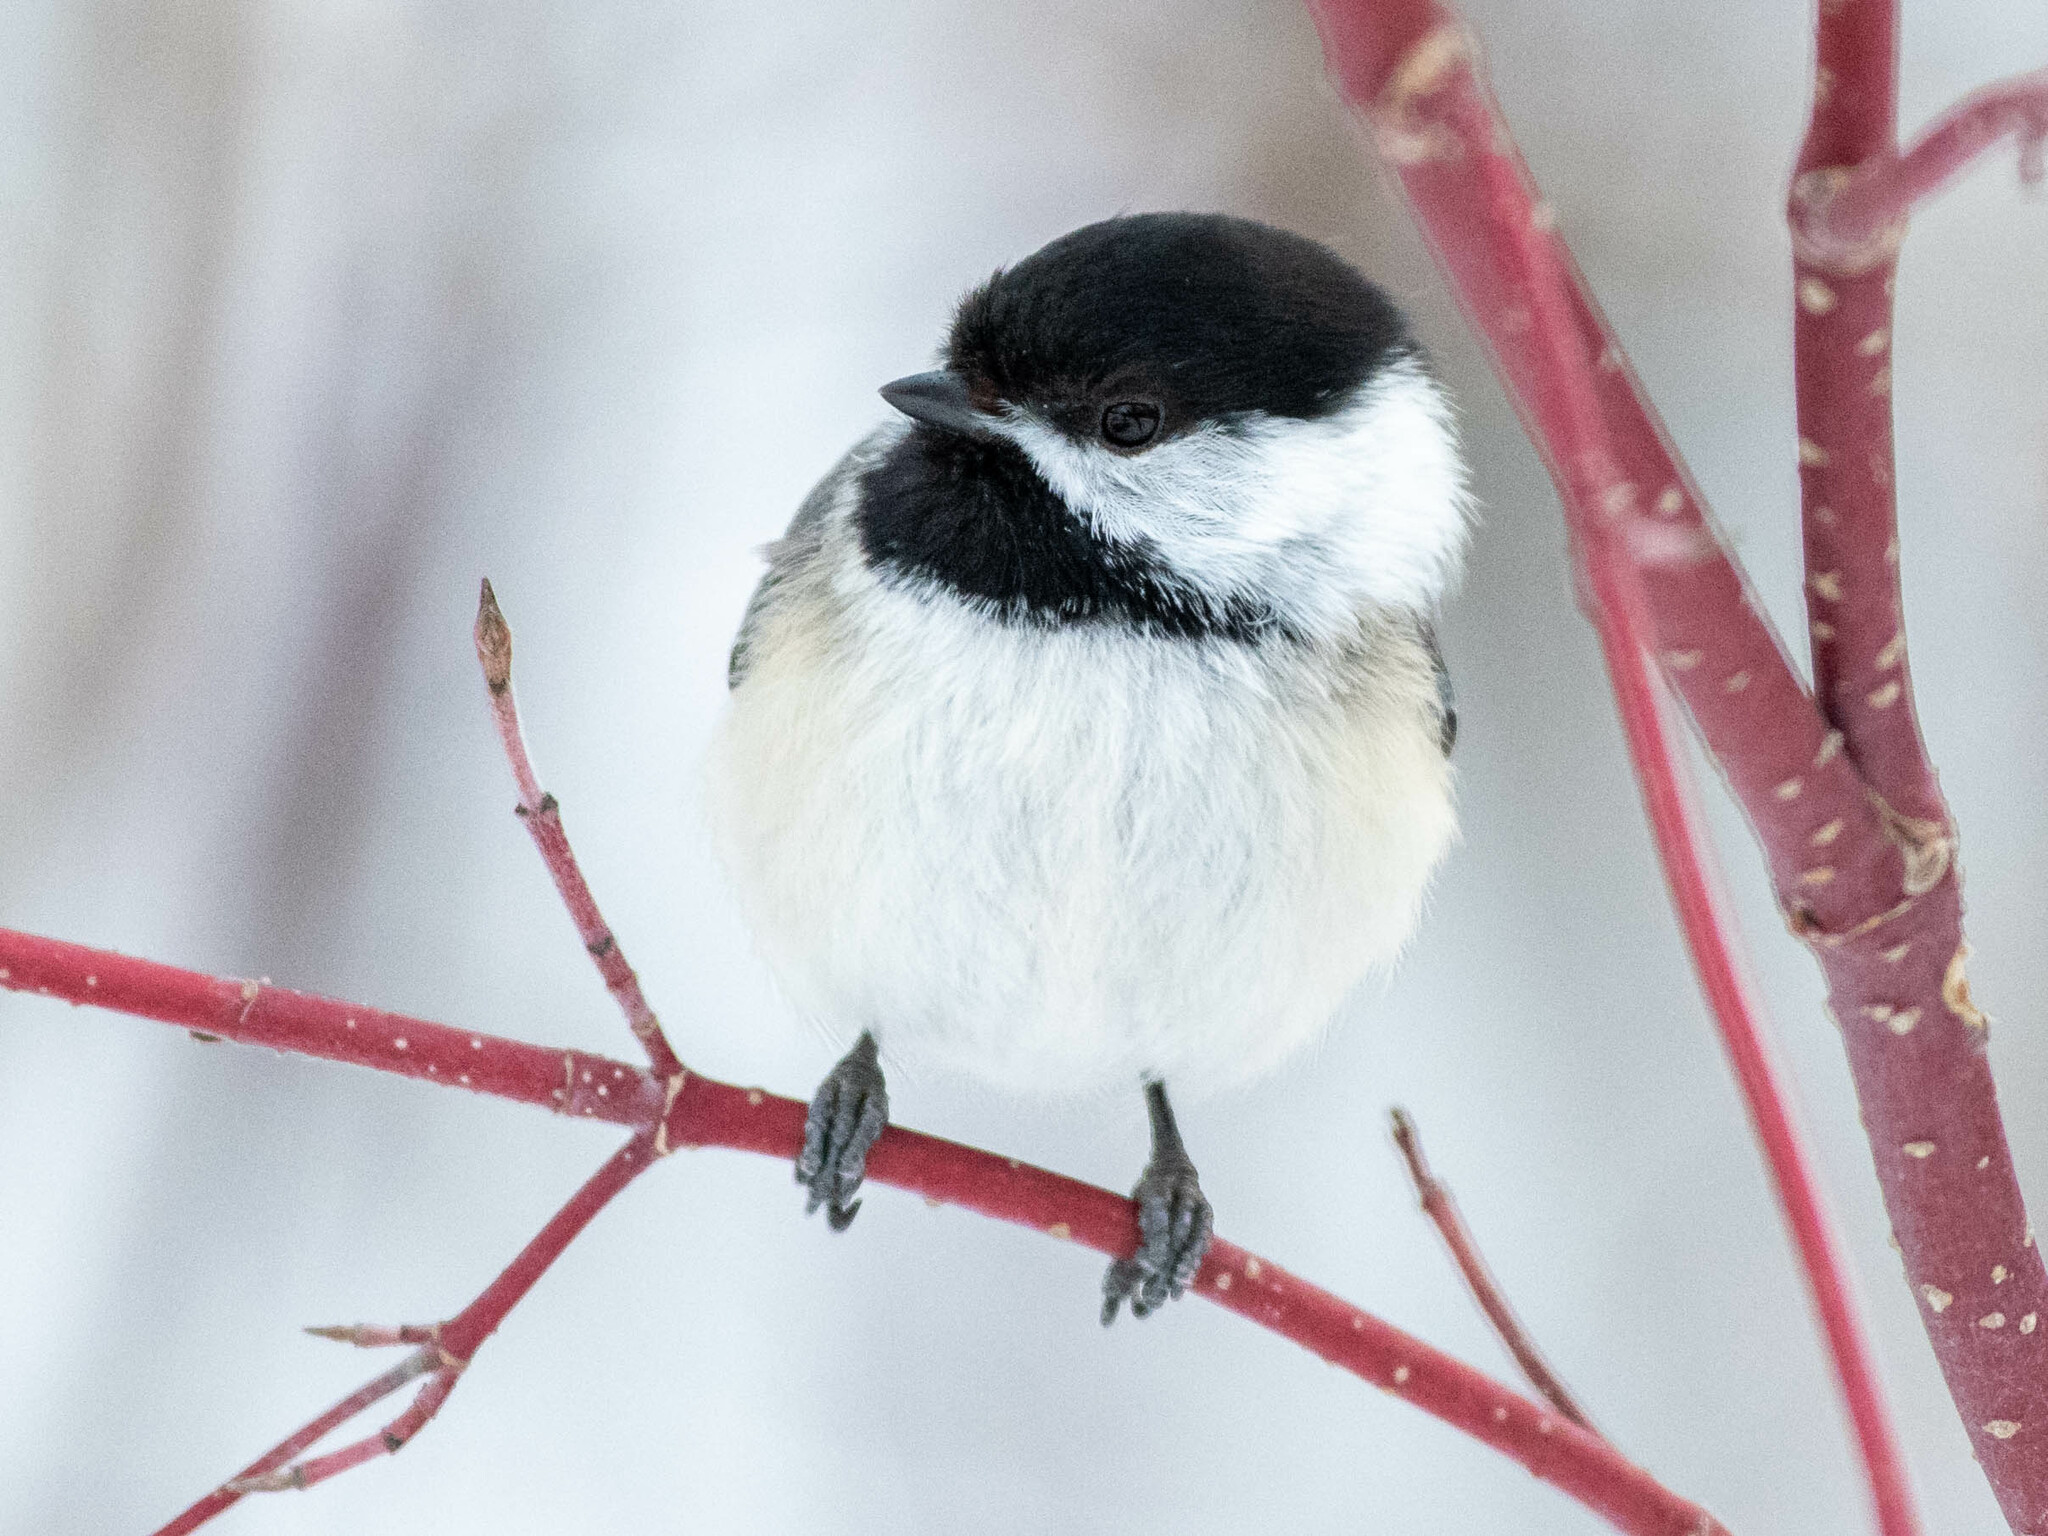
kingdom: Animalia
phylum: Chordata
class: Aves
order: Passeriformes
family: Paridae
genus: Poecile
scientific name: Poecile atricapillus
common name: Black-capped chickadee
